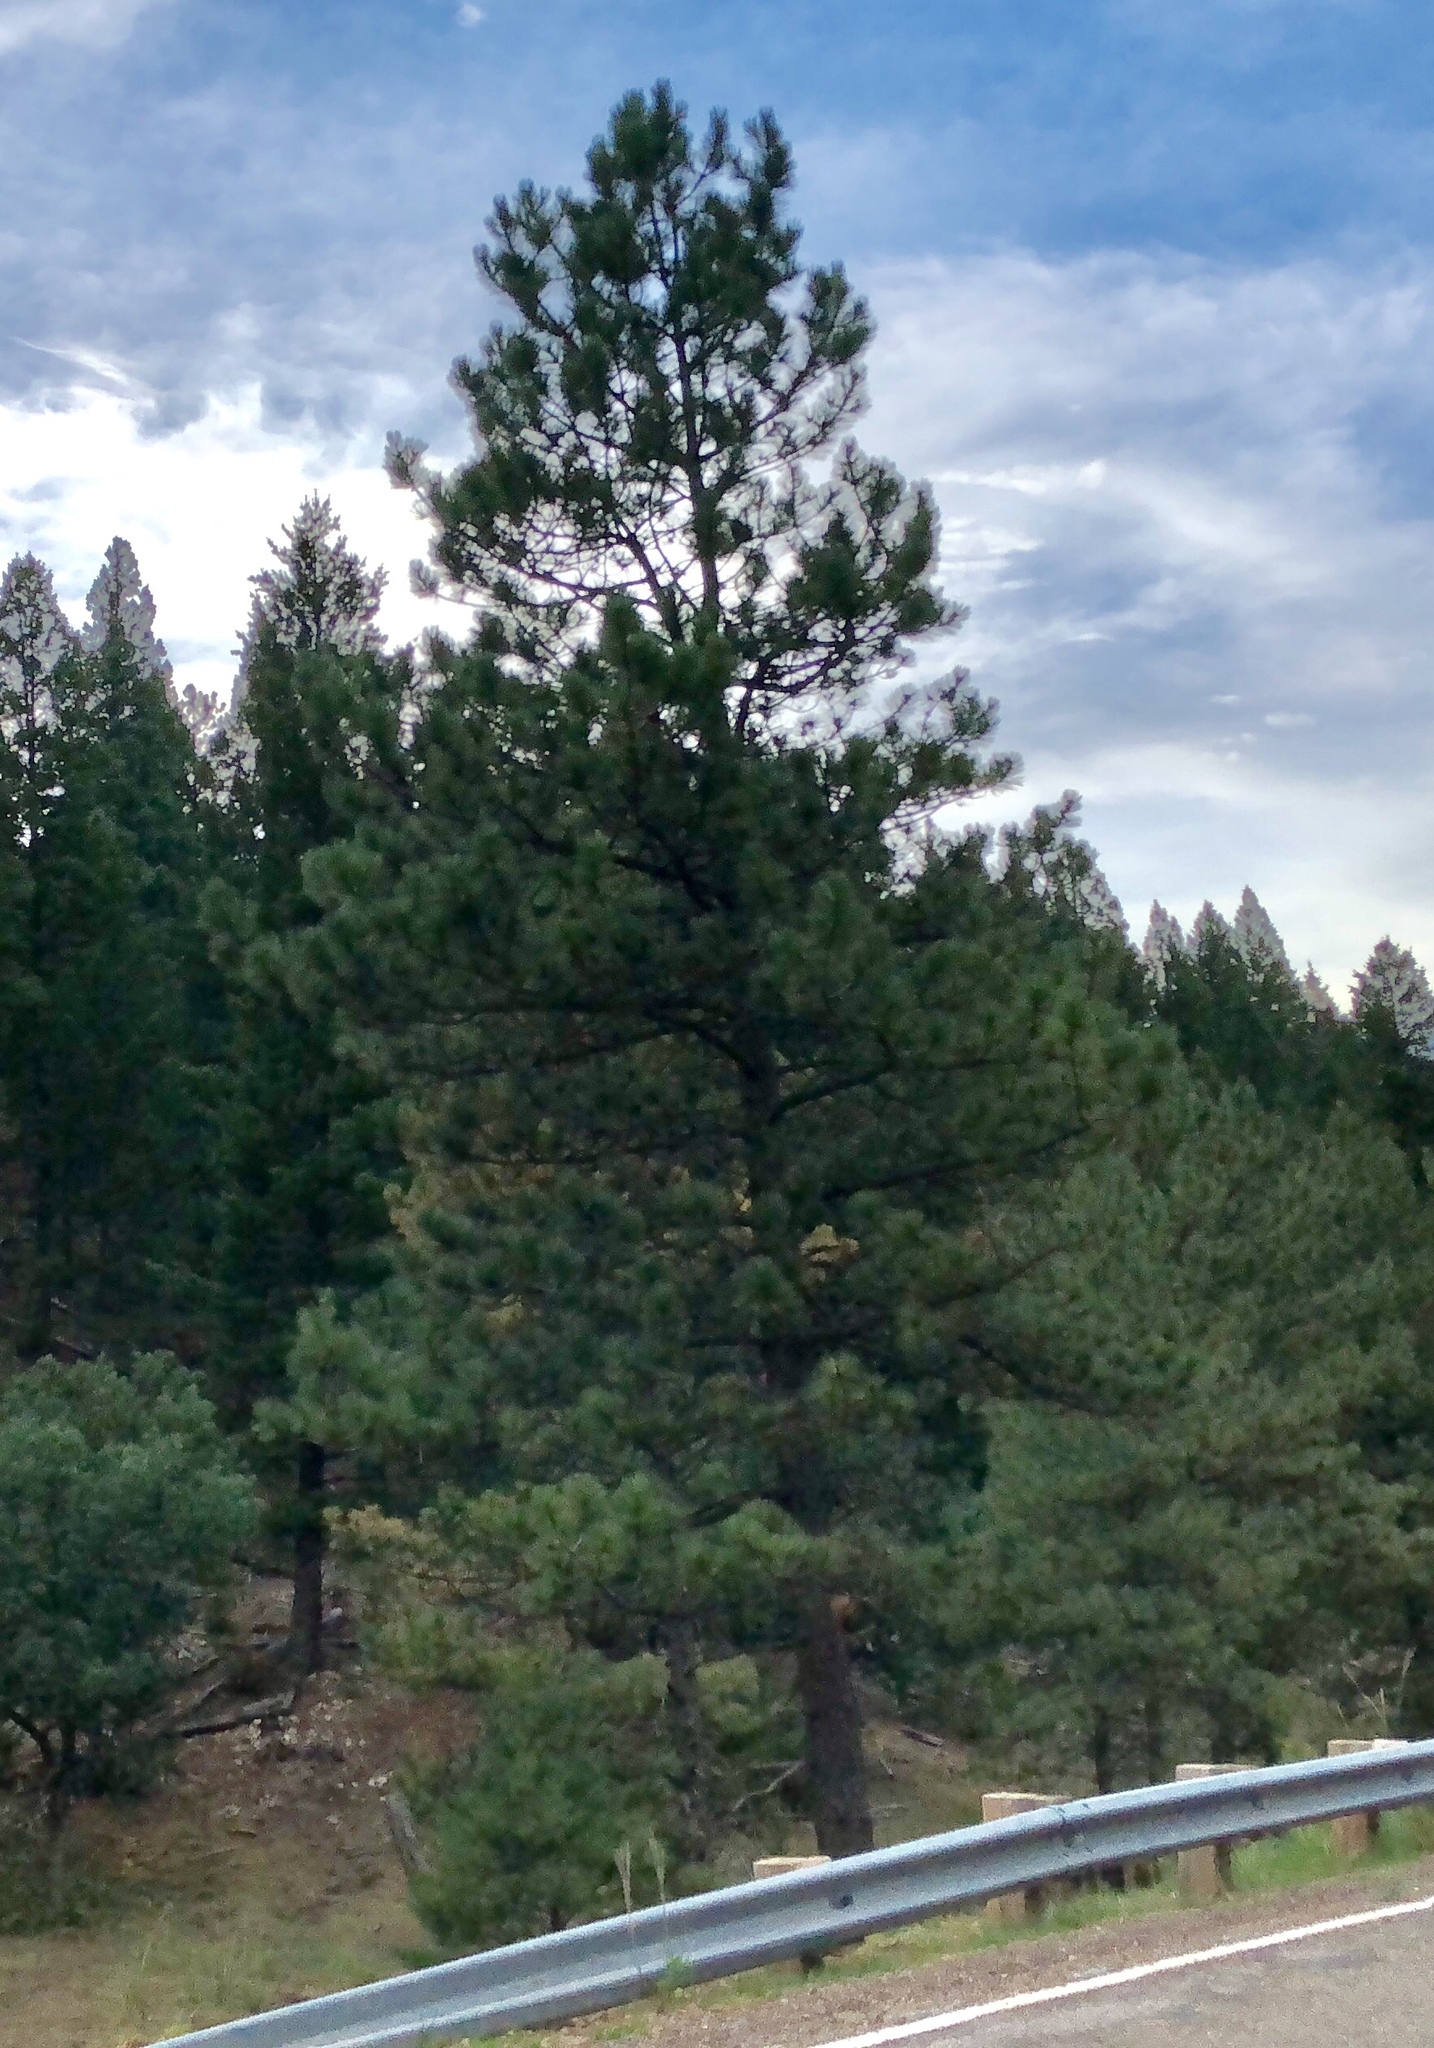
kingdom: Plantae
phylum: Tracheophyta
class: Pinopsida
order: Pinales
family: Pinaceae
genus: Pinus
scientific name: Pinus ponderosa
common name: Western yellow-pine
